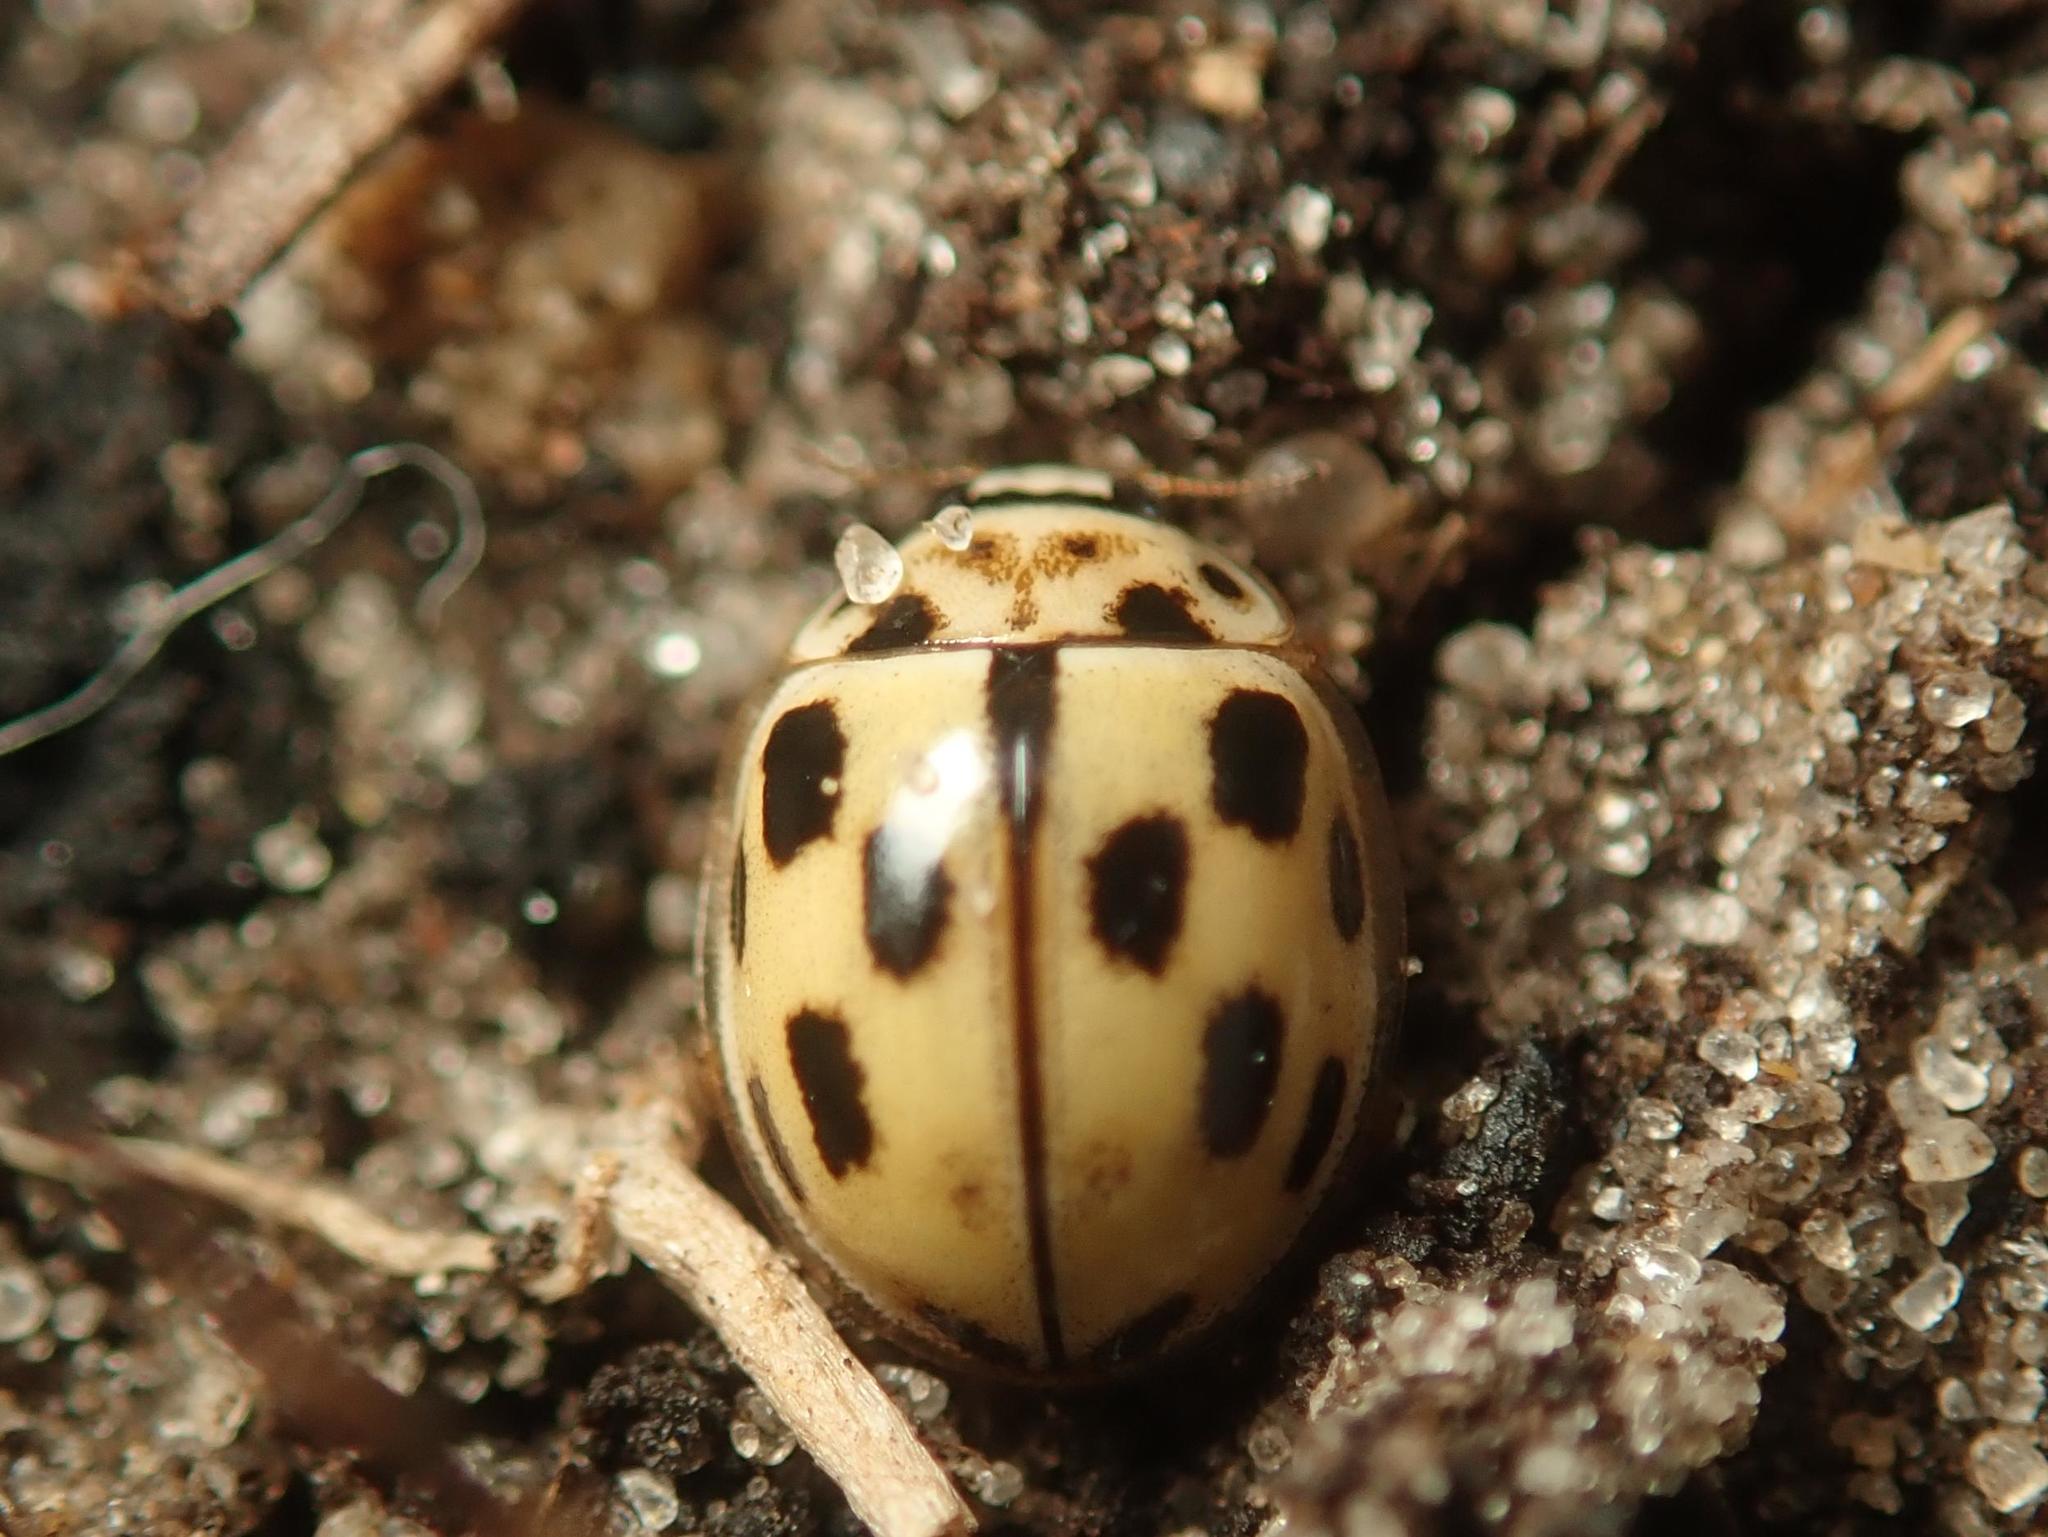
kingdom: Animalia
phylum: Arthropoda
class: Insecta
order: Coleoptera
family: Coccinellidae
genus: Propylaea
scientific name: Propylaea quatuordecimpunctata
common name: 14-spotted ladybird beetle
